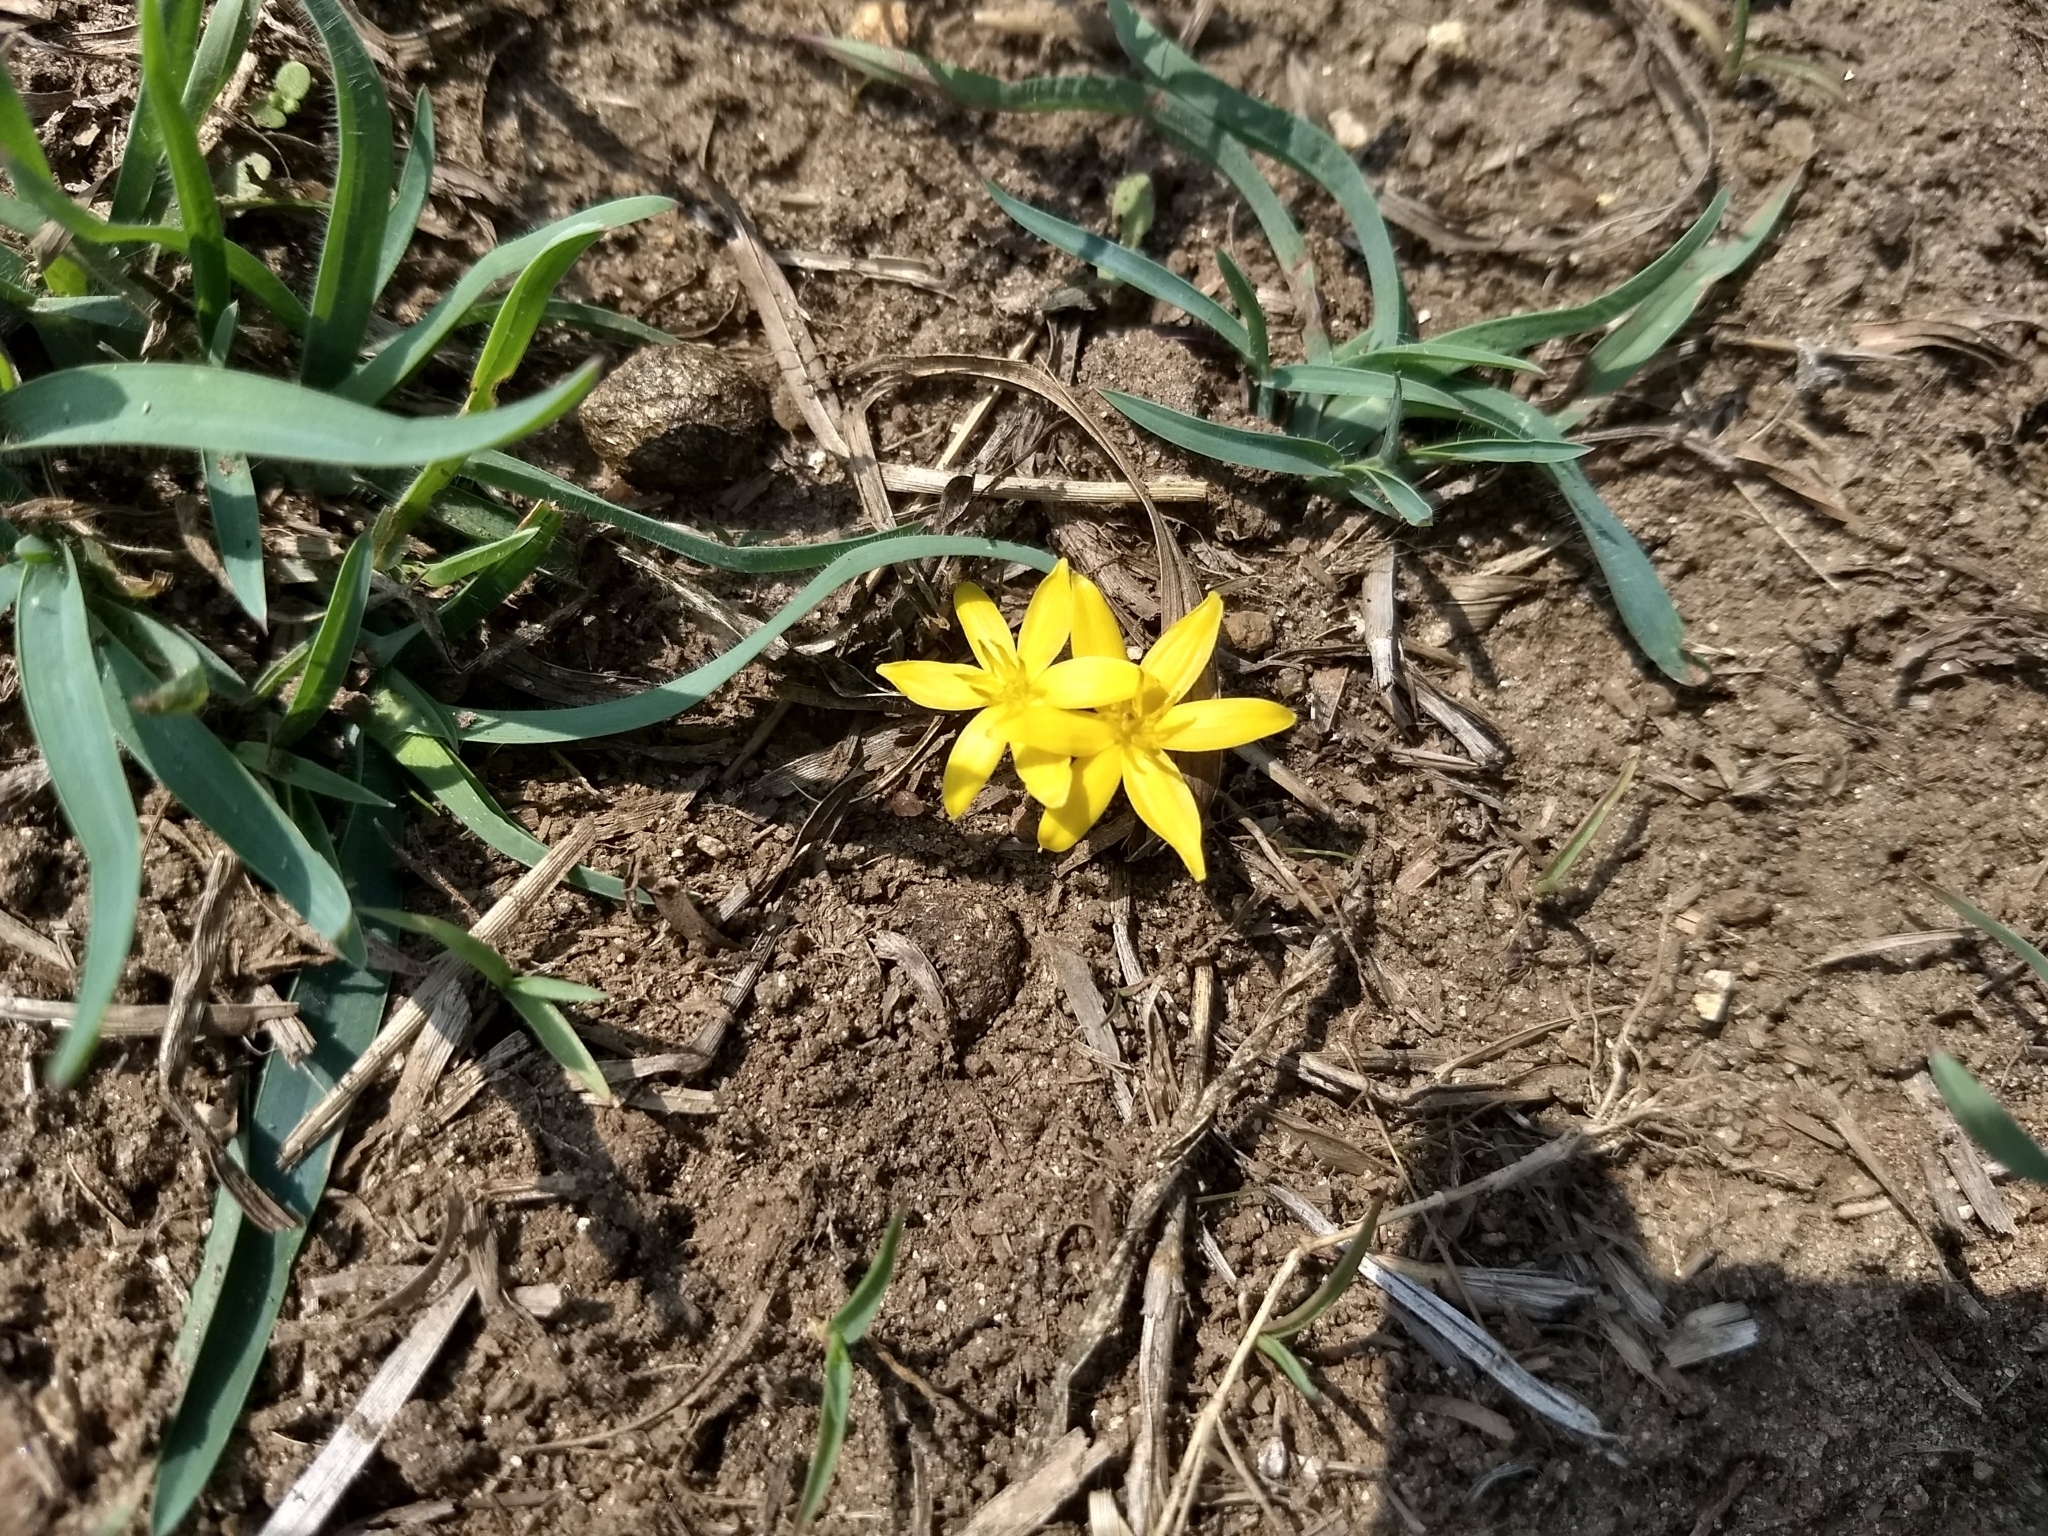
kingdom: Plantae
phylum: Tracheophyta
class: Liliopsida
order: Asparagales
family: Hypoxidaceae
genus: Curculigo
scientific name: Curculigo orchioides
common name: Golden eye-grass
